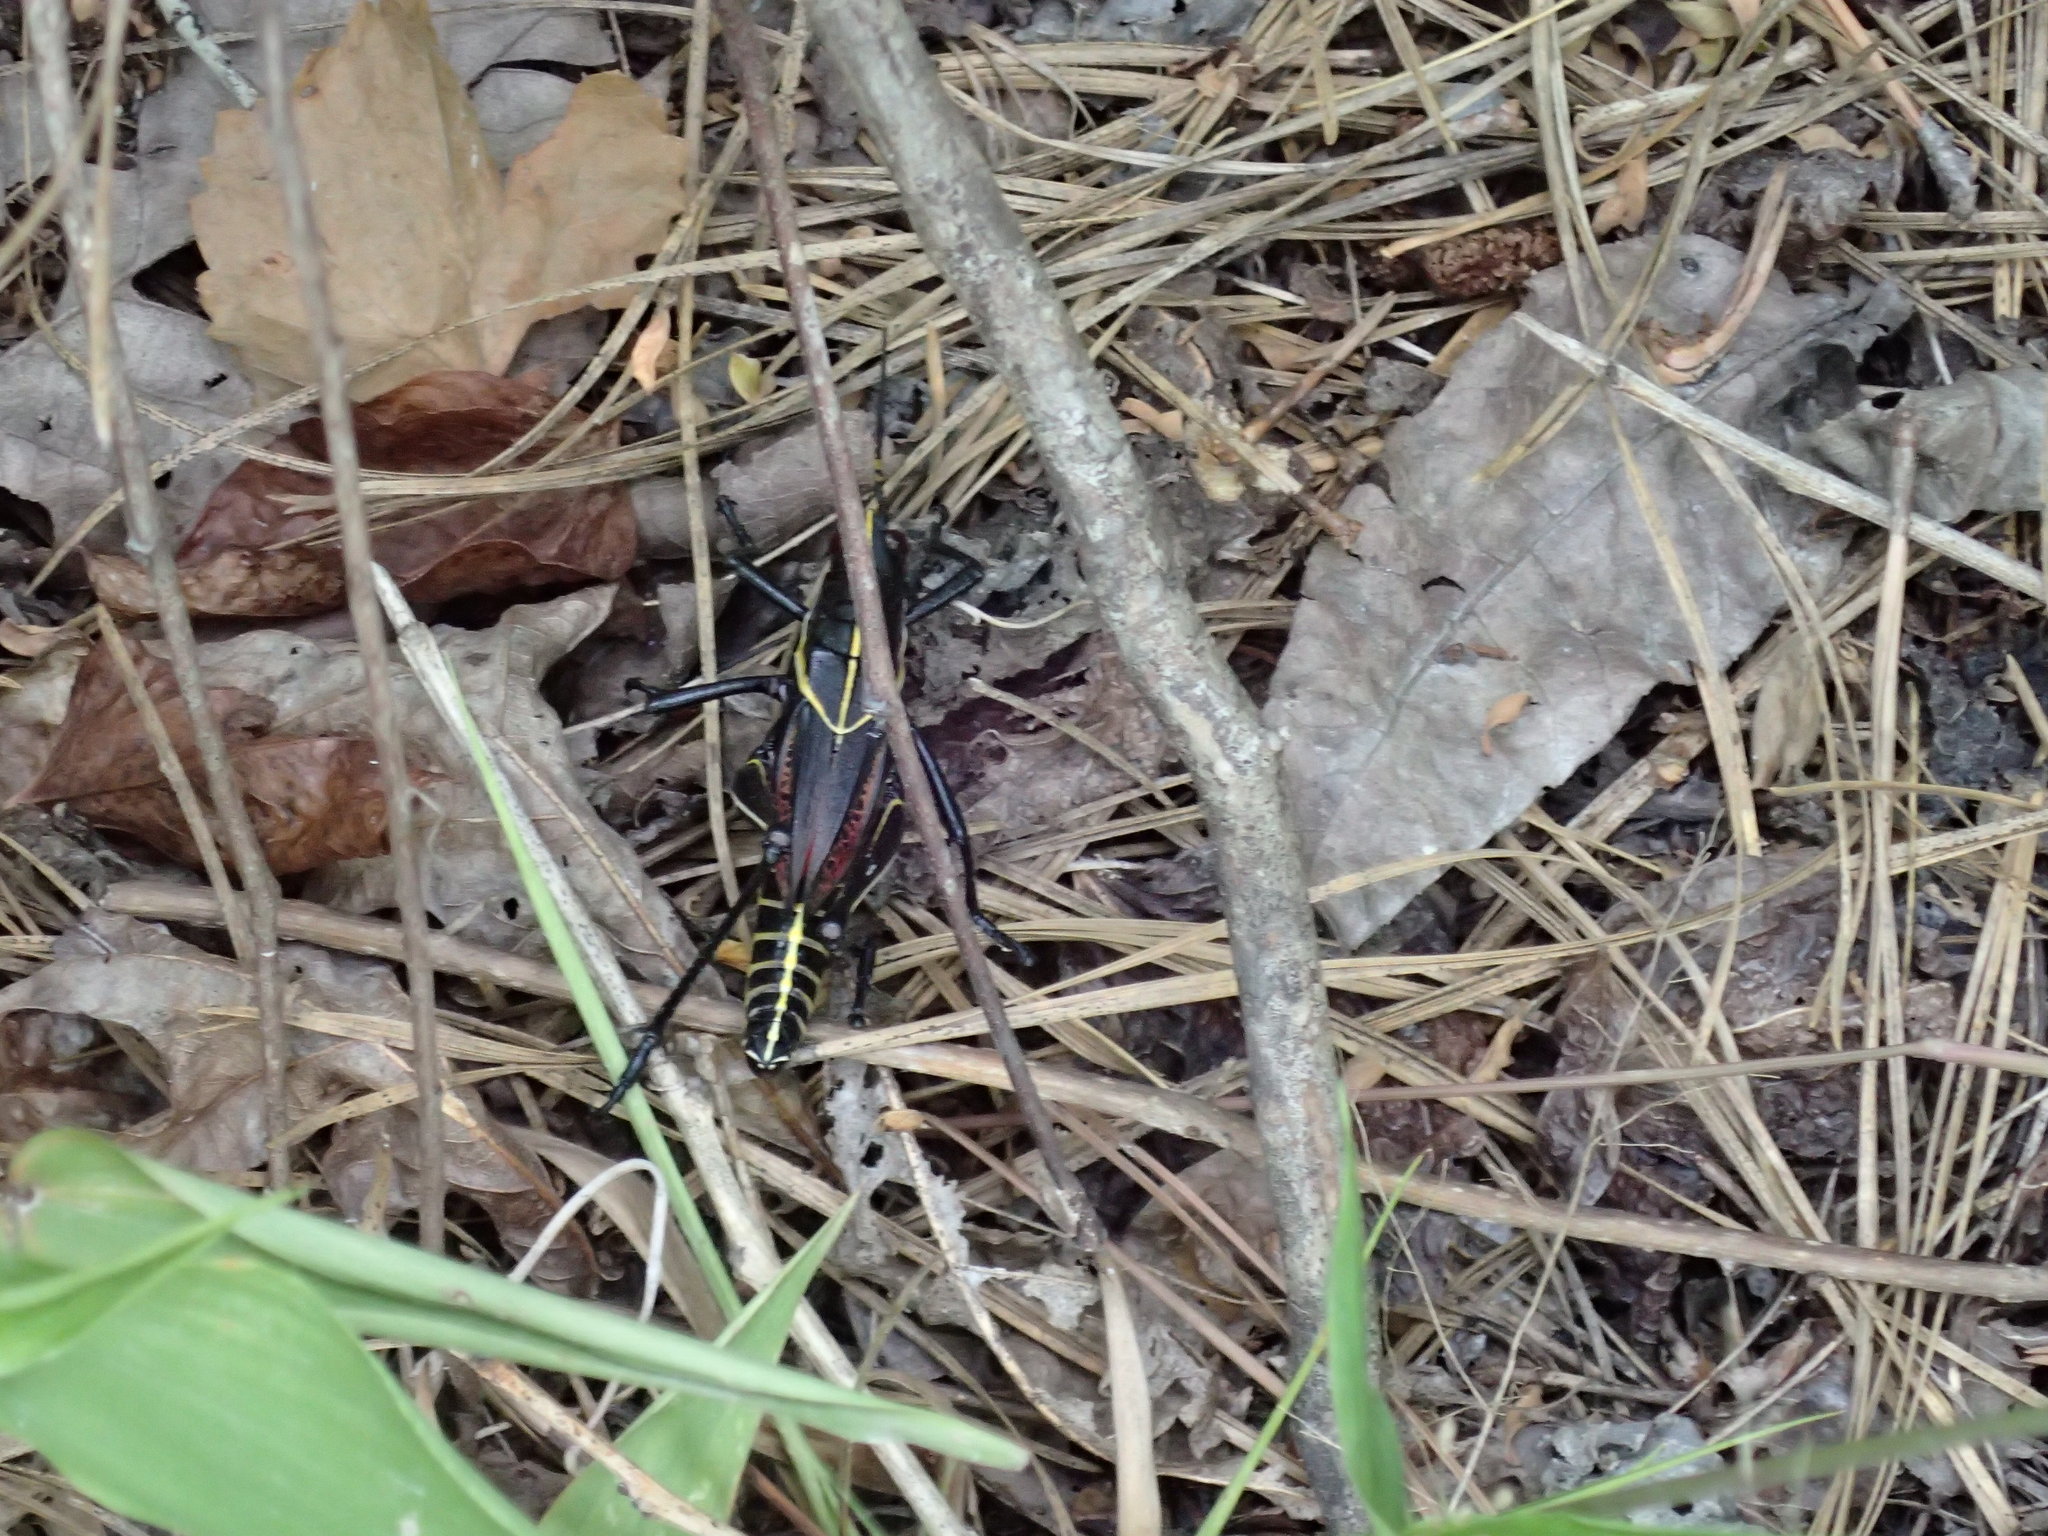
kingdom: Animalia
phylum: Arthropoda
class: Insecta
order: Orthoptera
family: Romaleidae
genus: Romalea
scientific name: Romalea microptera
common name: Eastern lubber grasshopper
